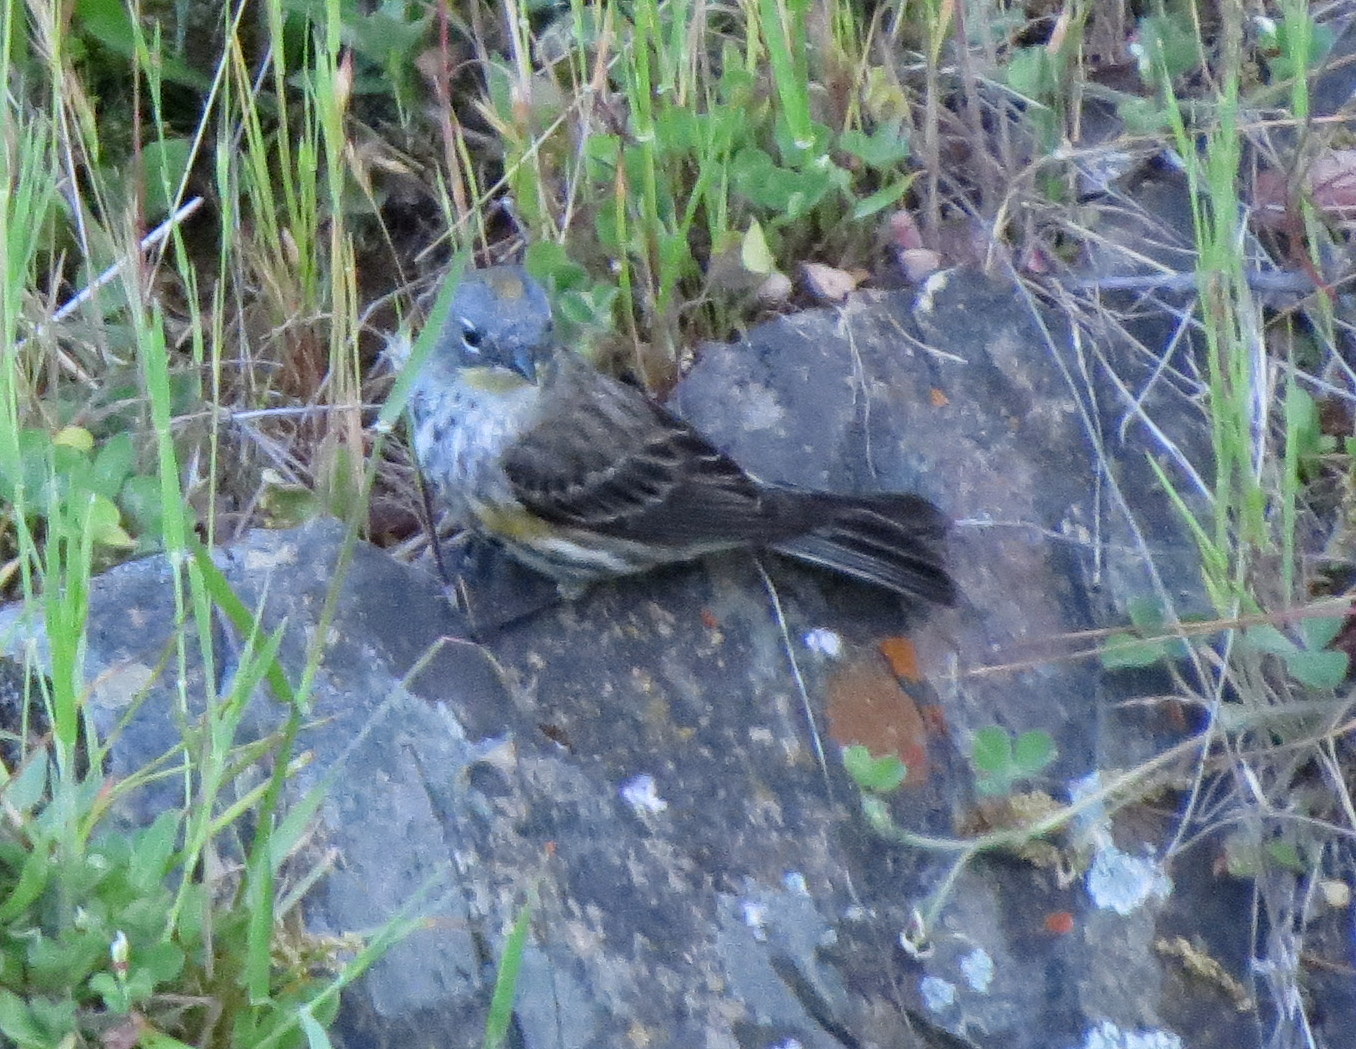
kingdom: Animalia
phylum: Chordata
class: Aves
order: Passeriformes
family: Parulidae
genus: Setophaga
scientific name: Setophaga auduboni
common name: Audubon's warbler
